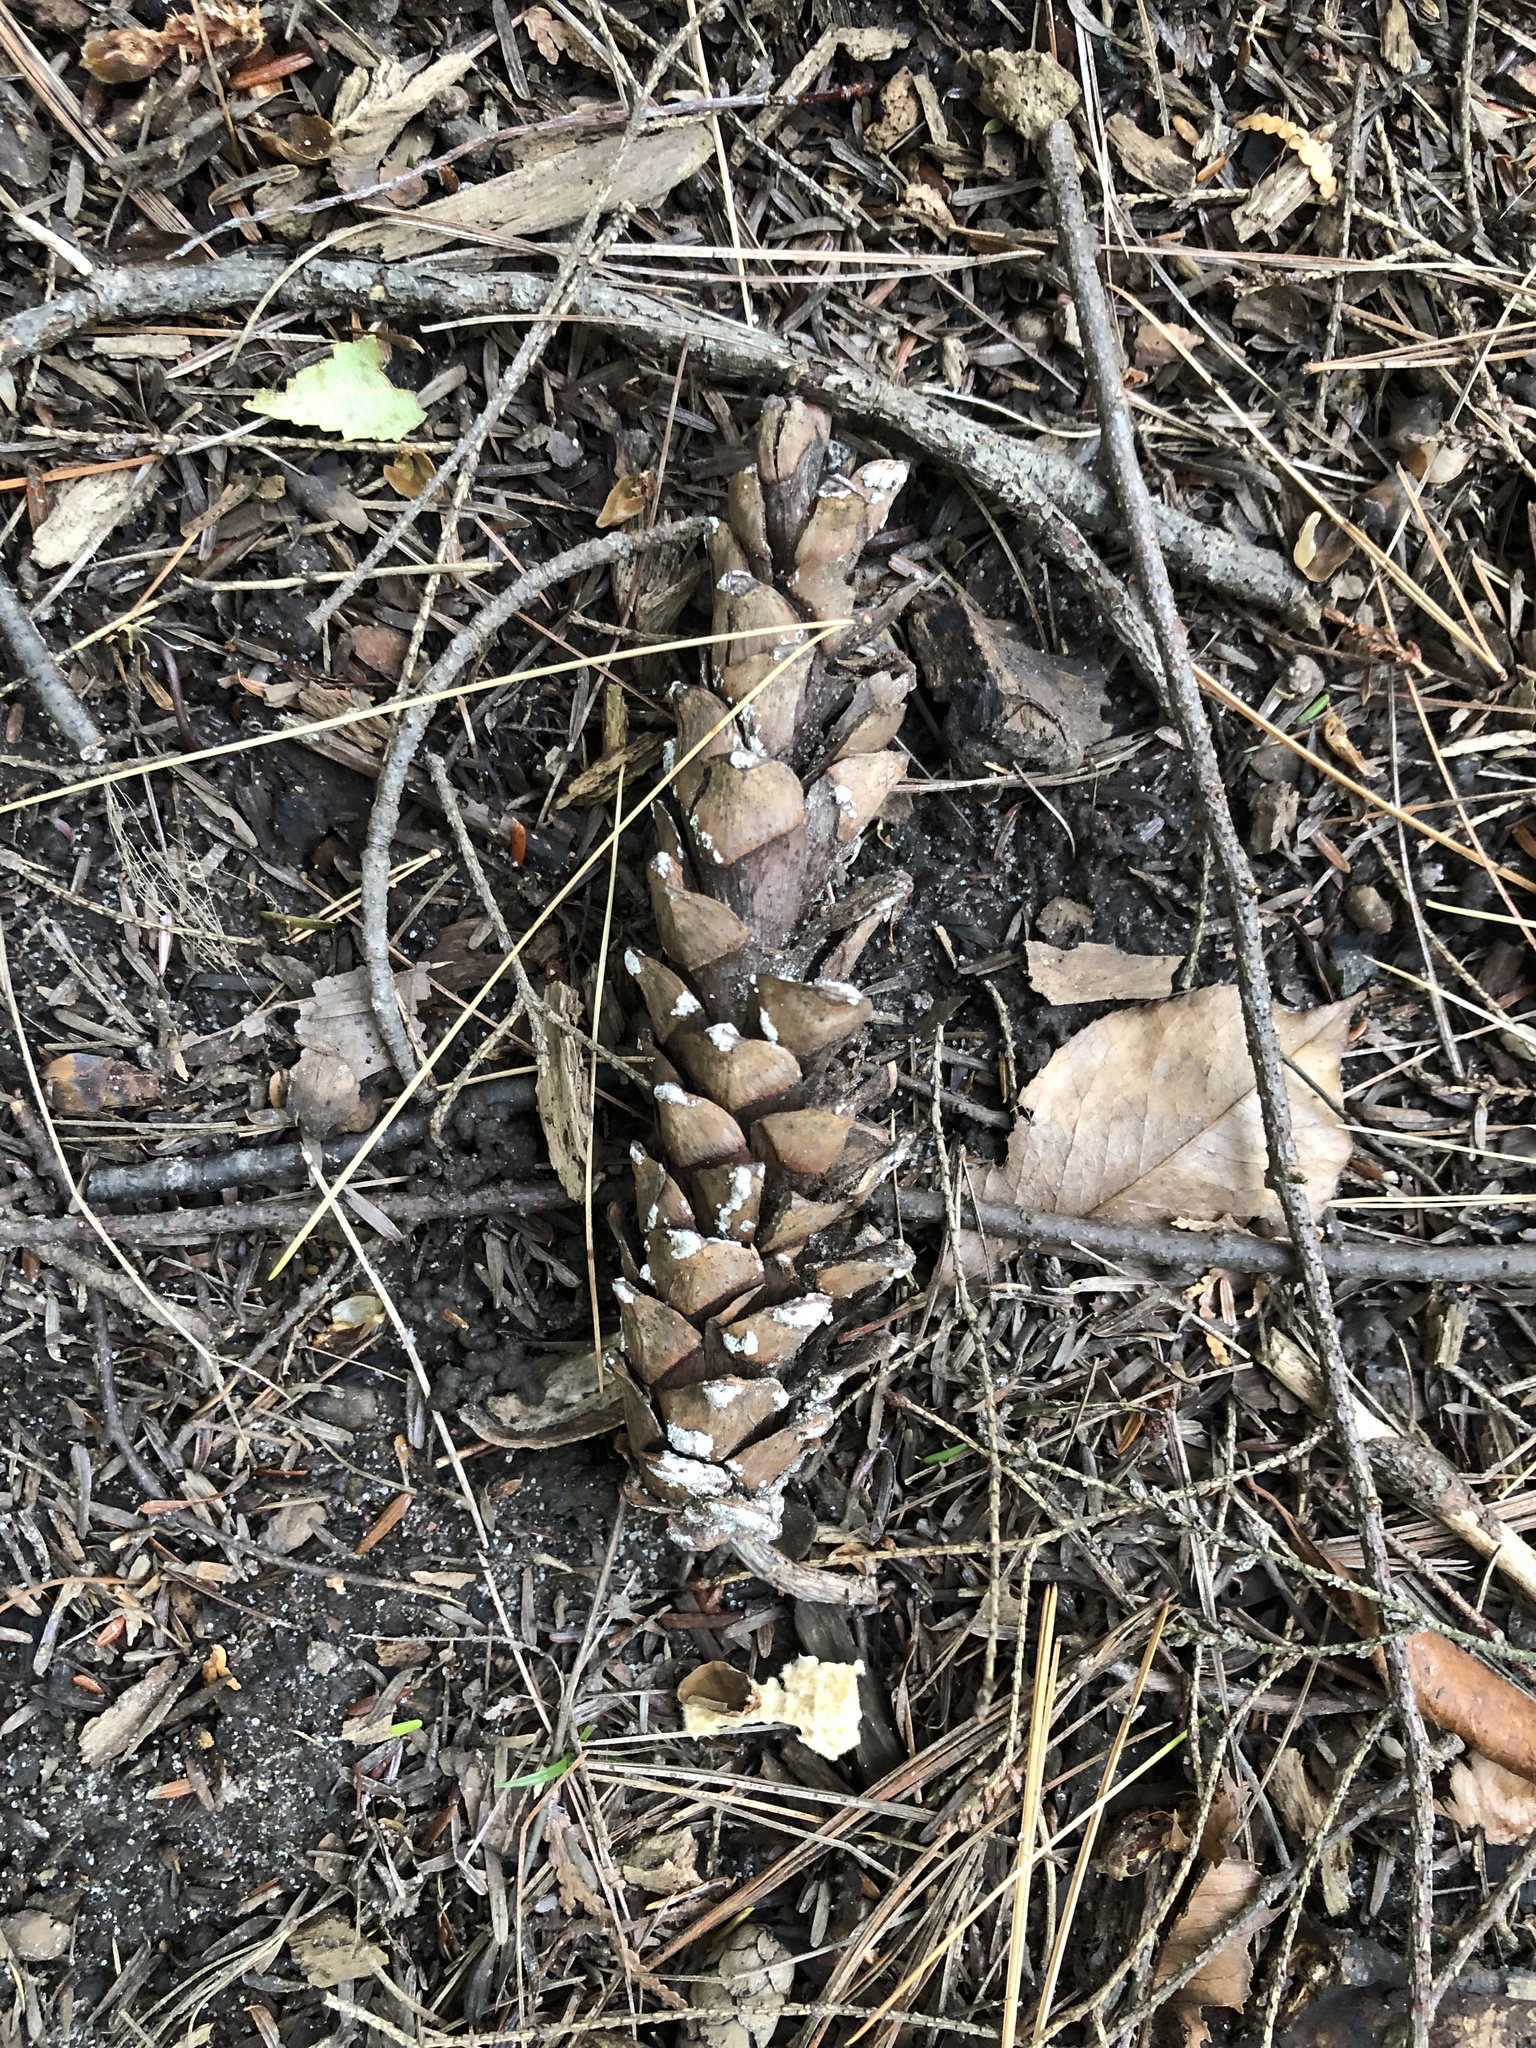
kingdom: Plantae
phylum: Tracheophyta
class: Pinopsida
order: Pinales
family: Pinaceae
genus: Pinus
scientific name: Pinus strobus
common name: Weymouth pine
